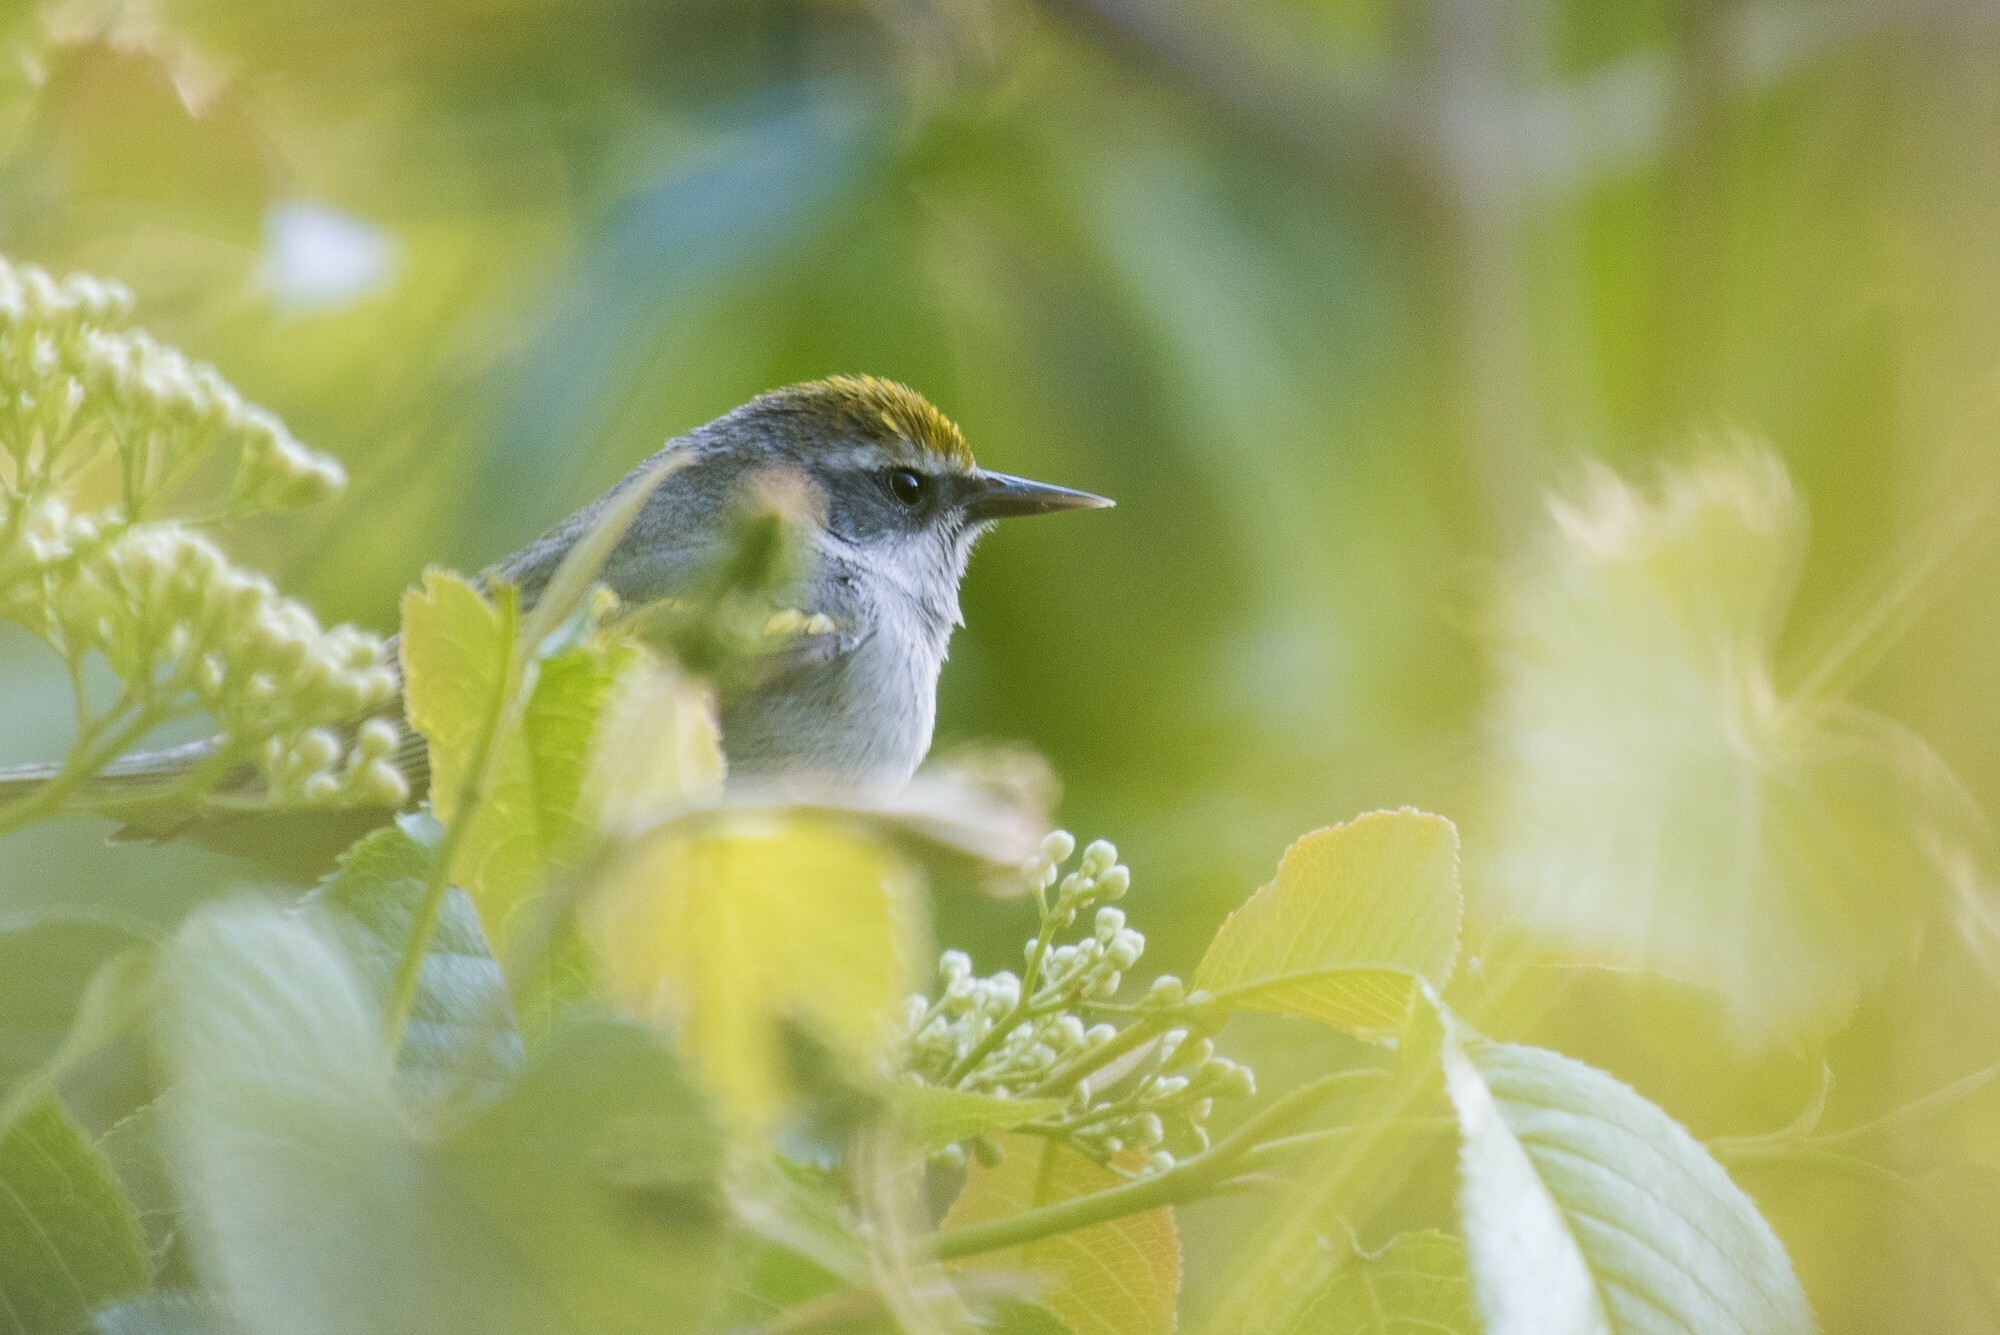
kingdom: Animalia
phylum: Chordata
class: Aves
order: Passeriformes
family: Parulidae
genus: Vermivora
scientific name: Vermivora chrysoptera
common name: Golden-winged warbler
